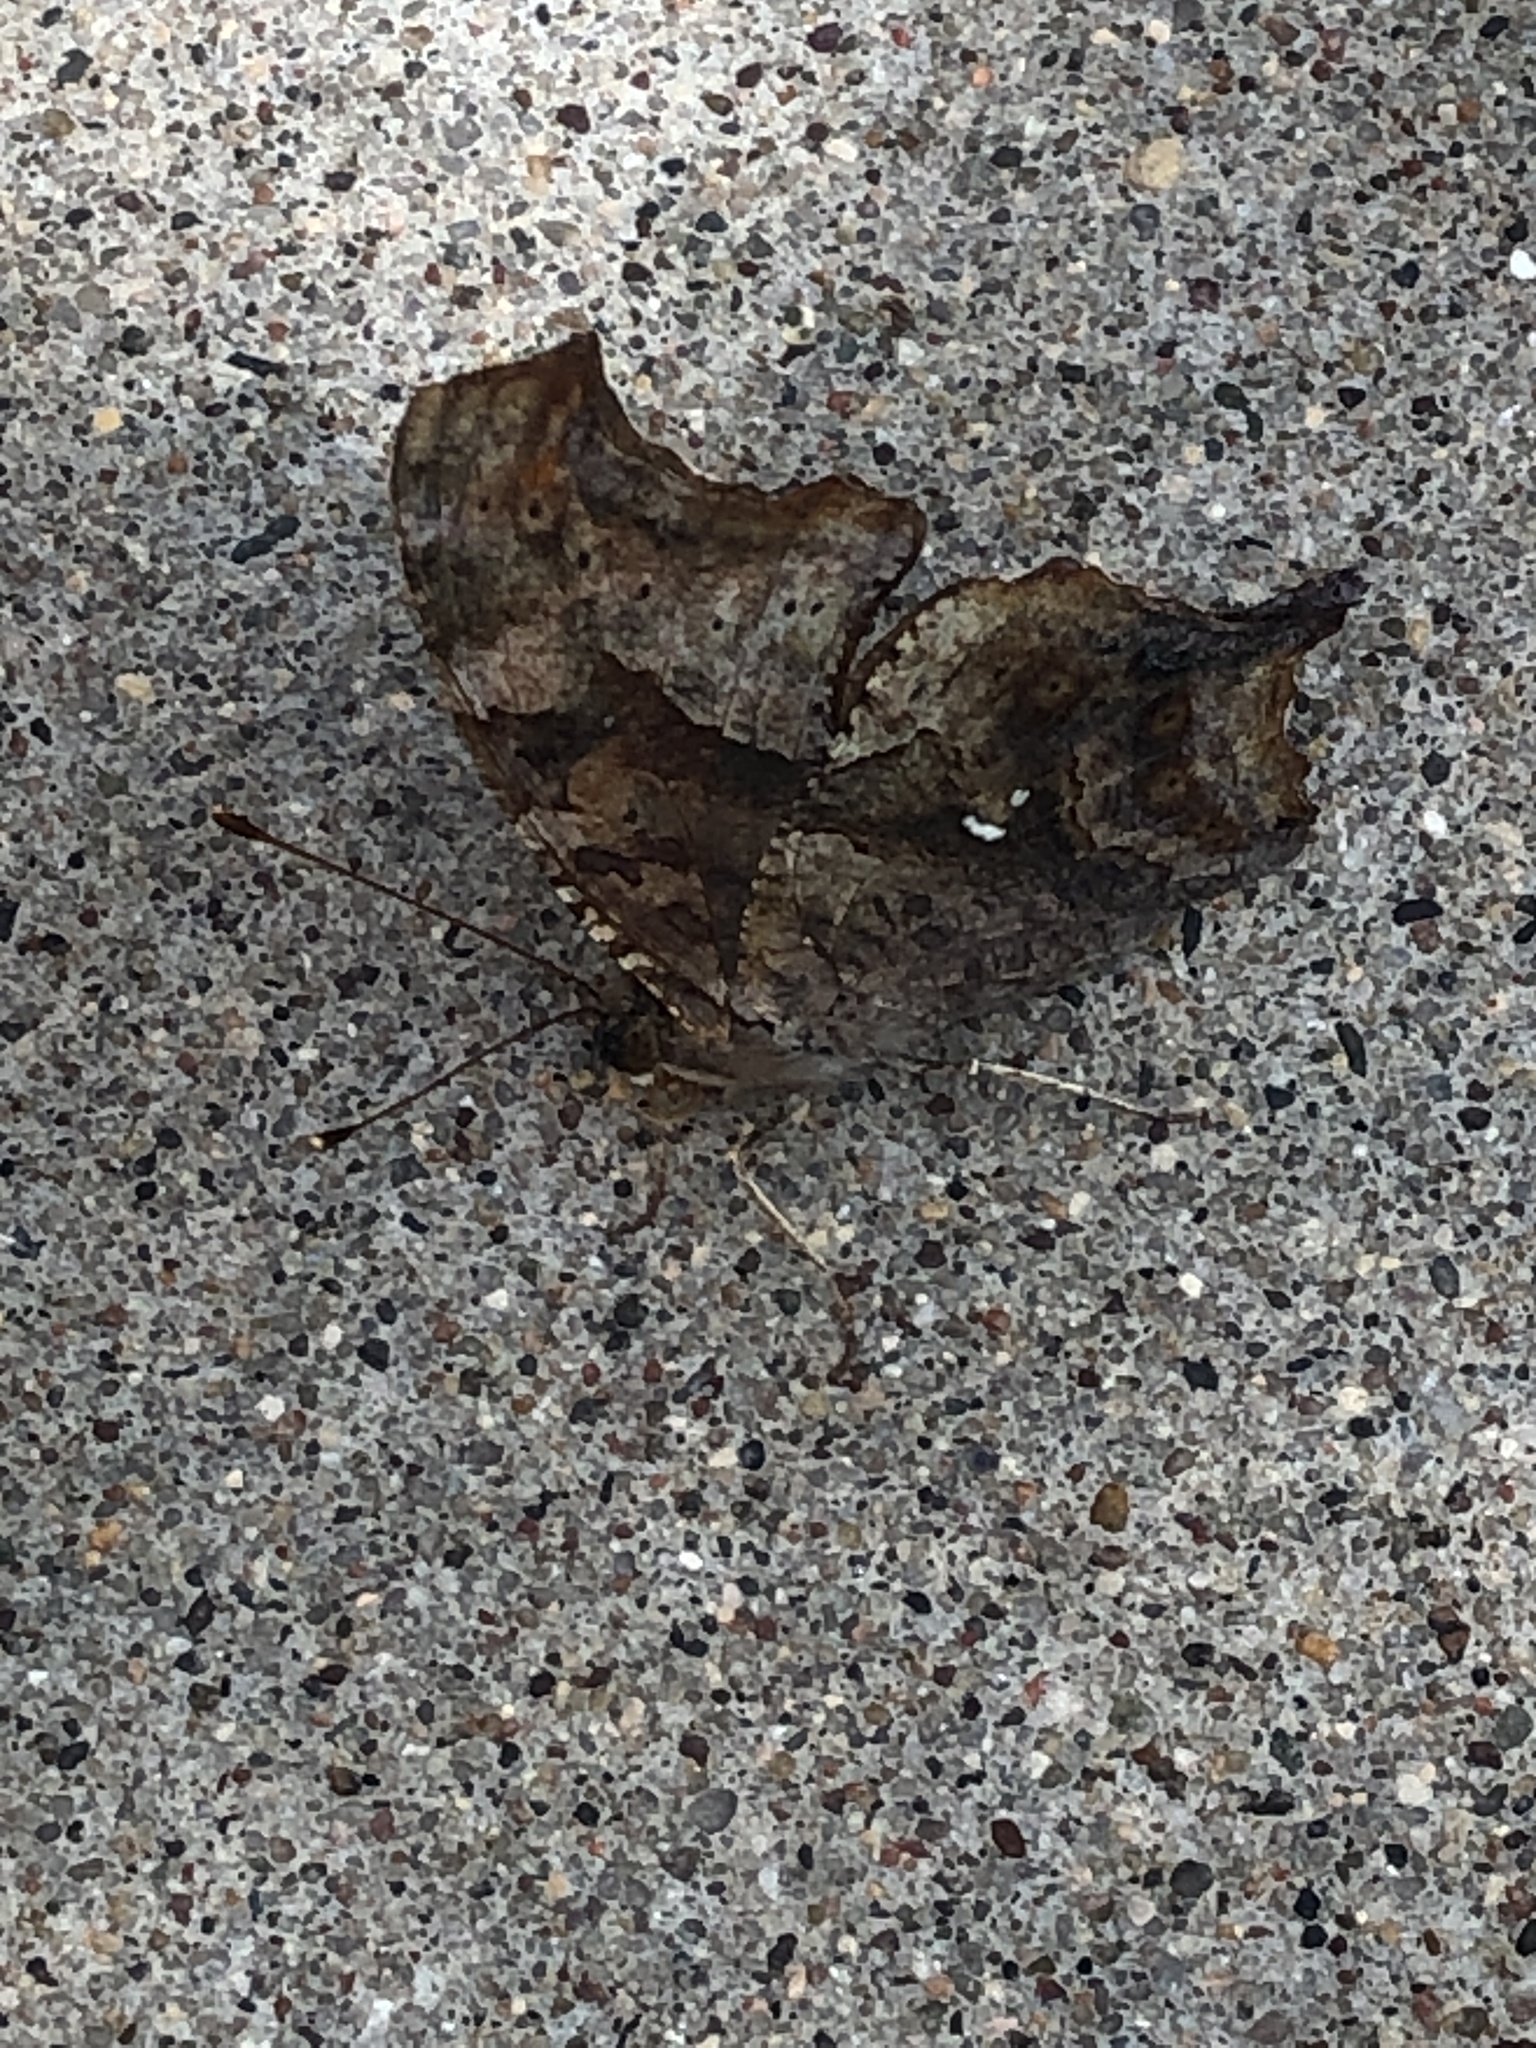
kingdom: Animalia
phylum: Arthropoda
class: Insecta
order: Lepidoptera
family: Nymphalidae
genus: Polygonia
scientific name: Polygonia interrogationis
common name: Question mark
